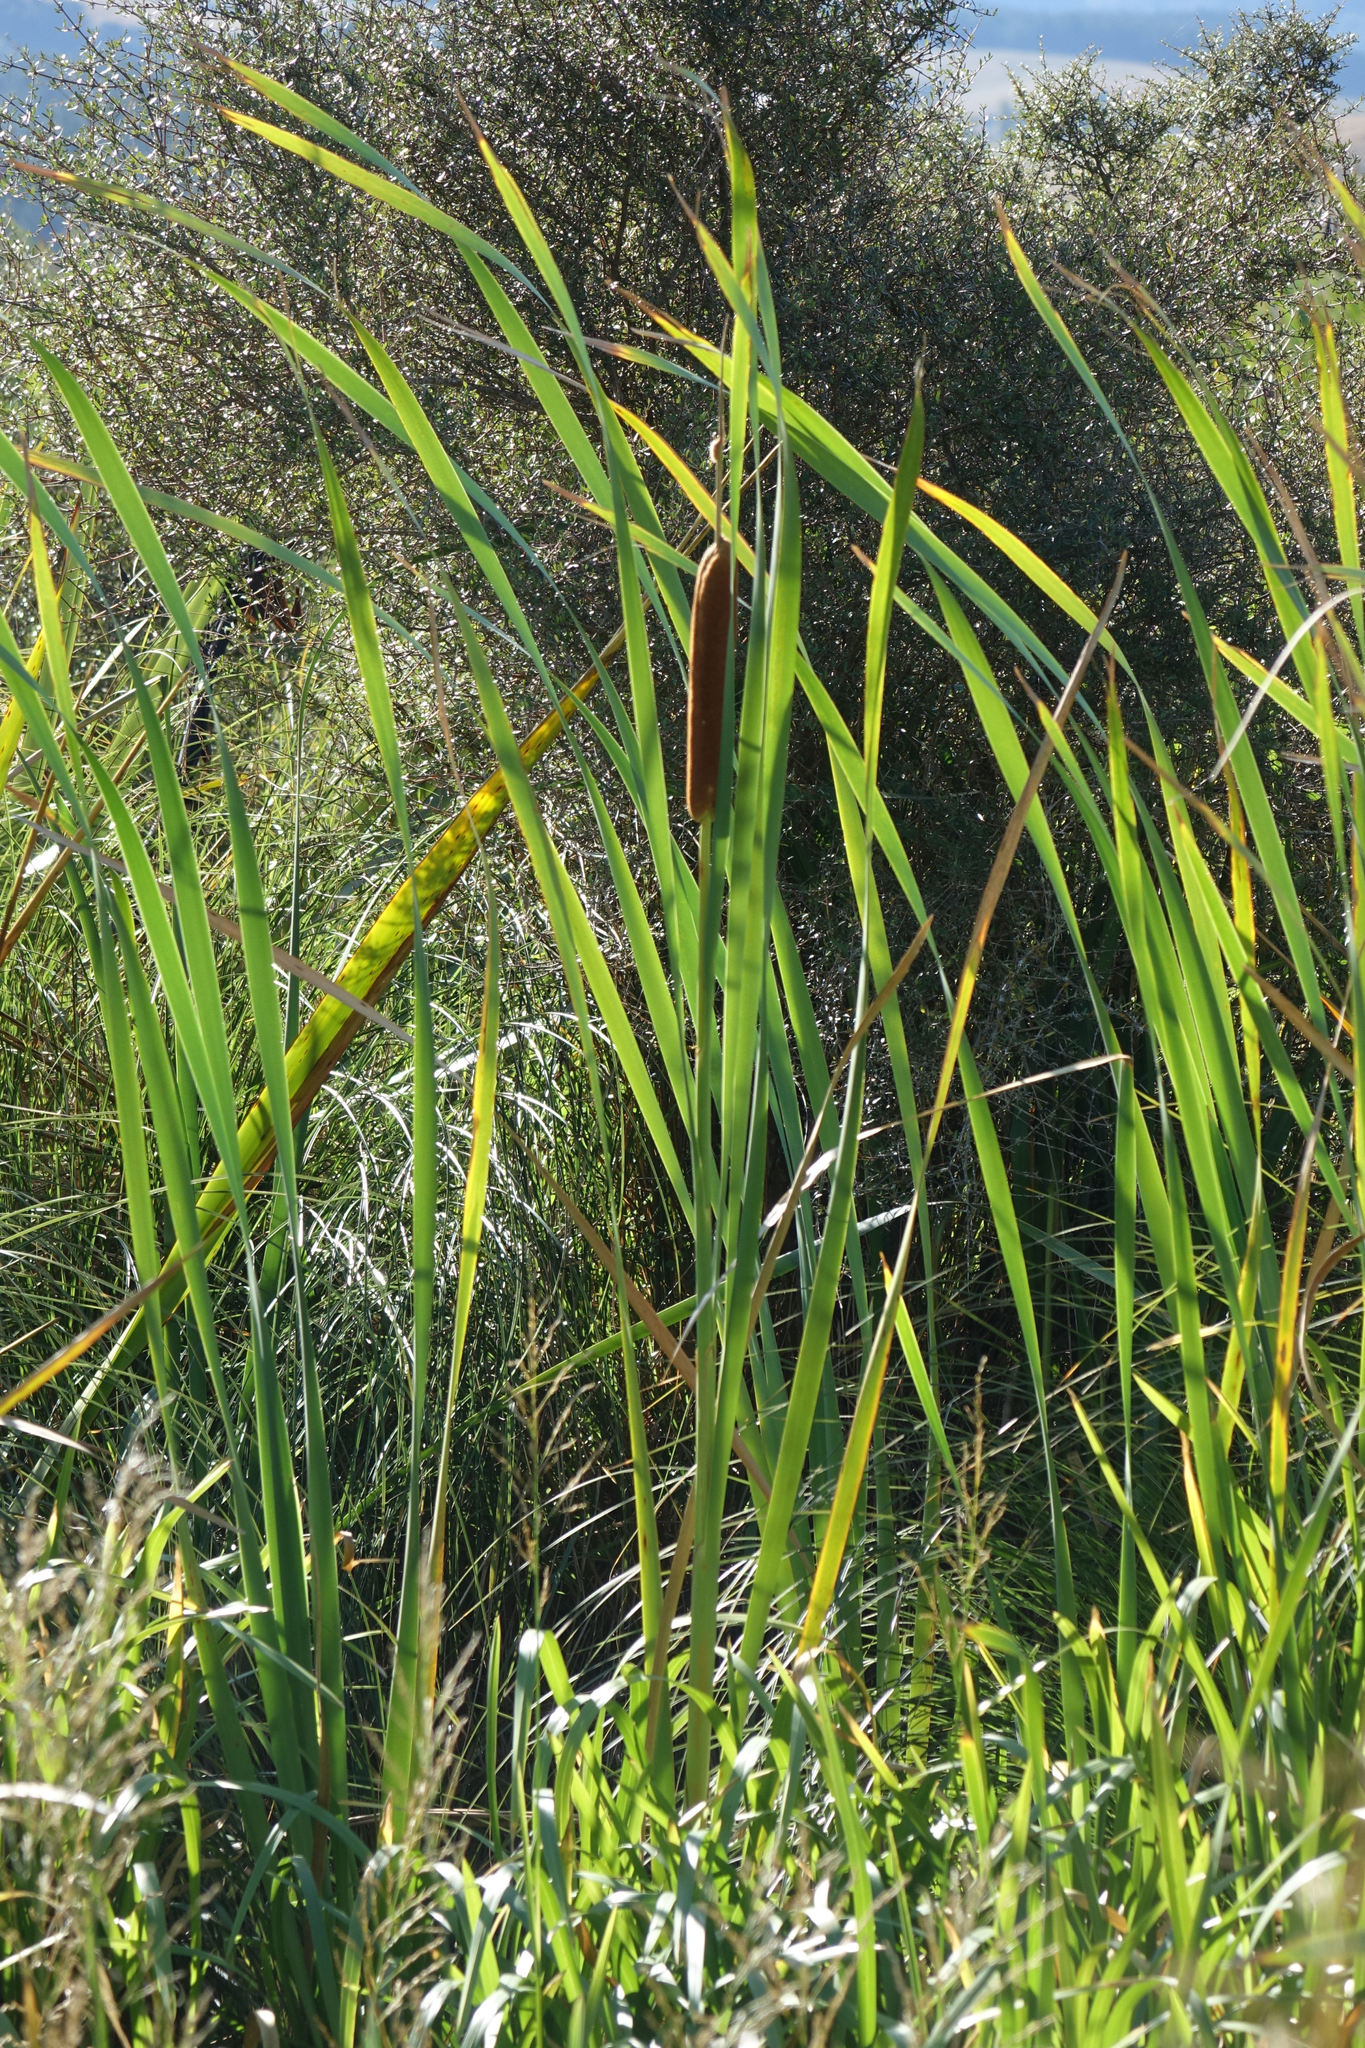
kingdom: Plantae
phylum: Tracheophyta
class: Liliopsida
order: Poales
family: Typhaceae
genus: Typha
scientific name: Typha orientalis
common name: Bullrush
